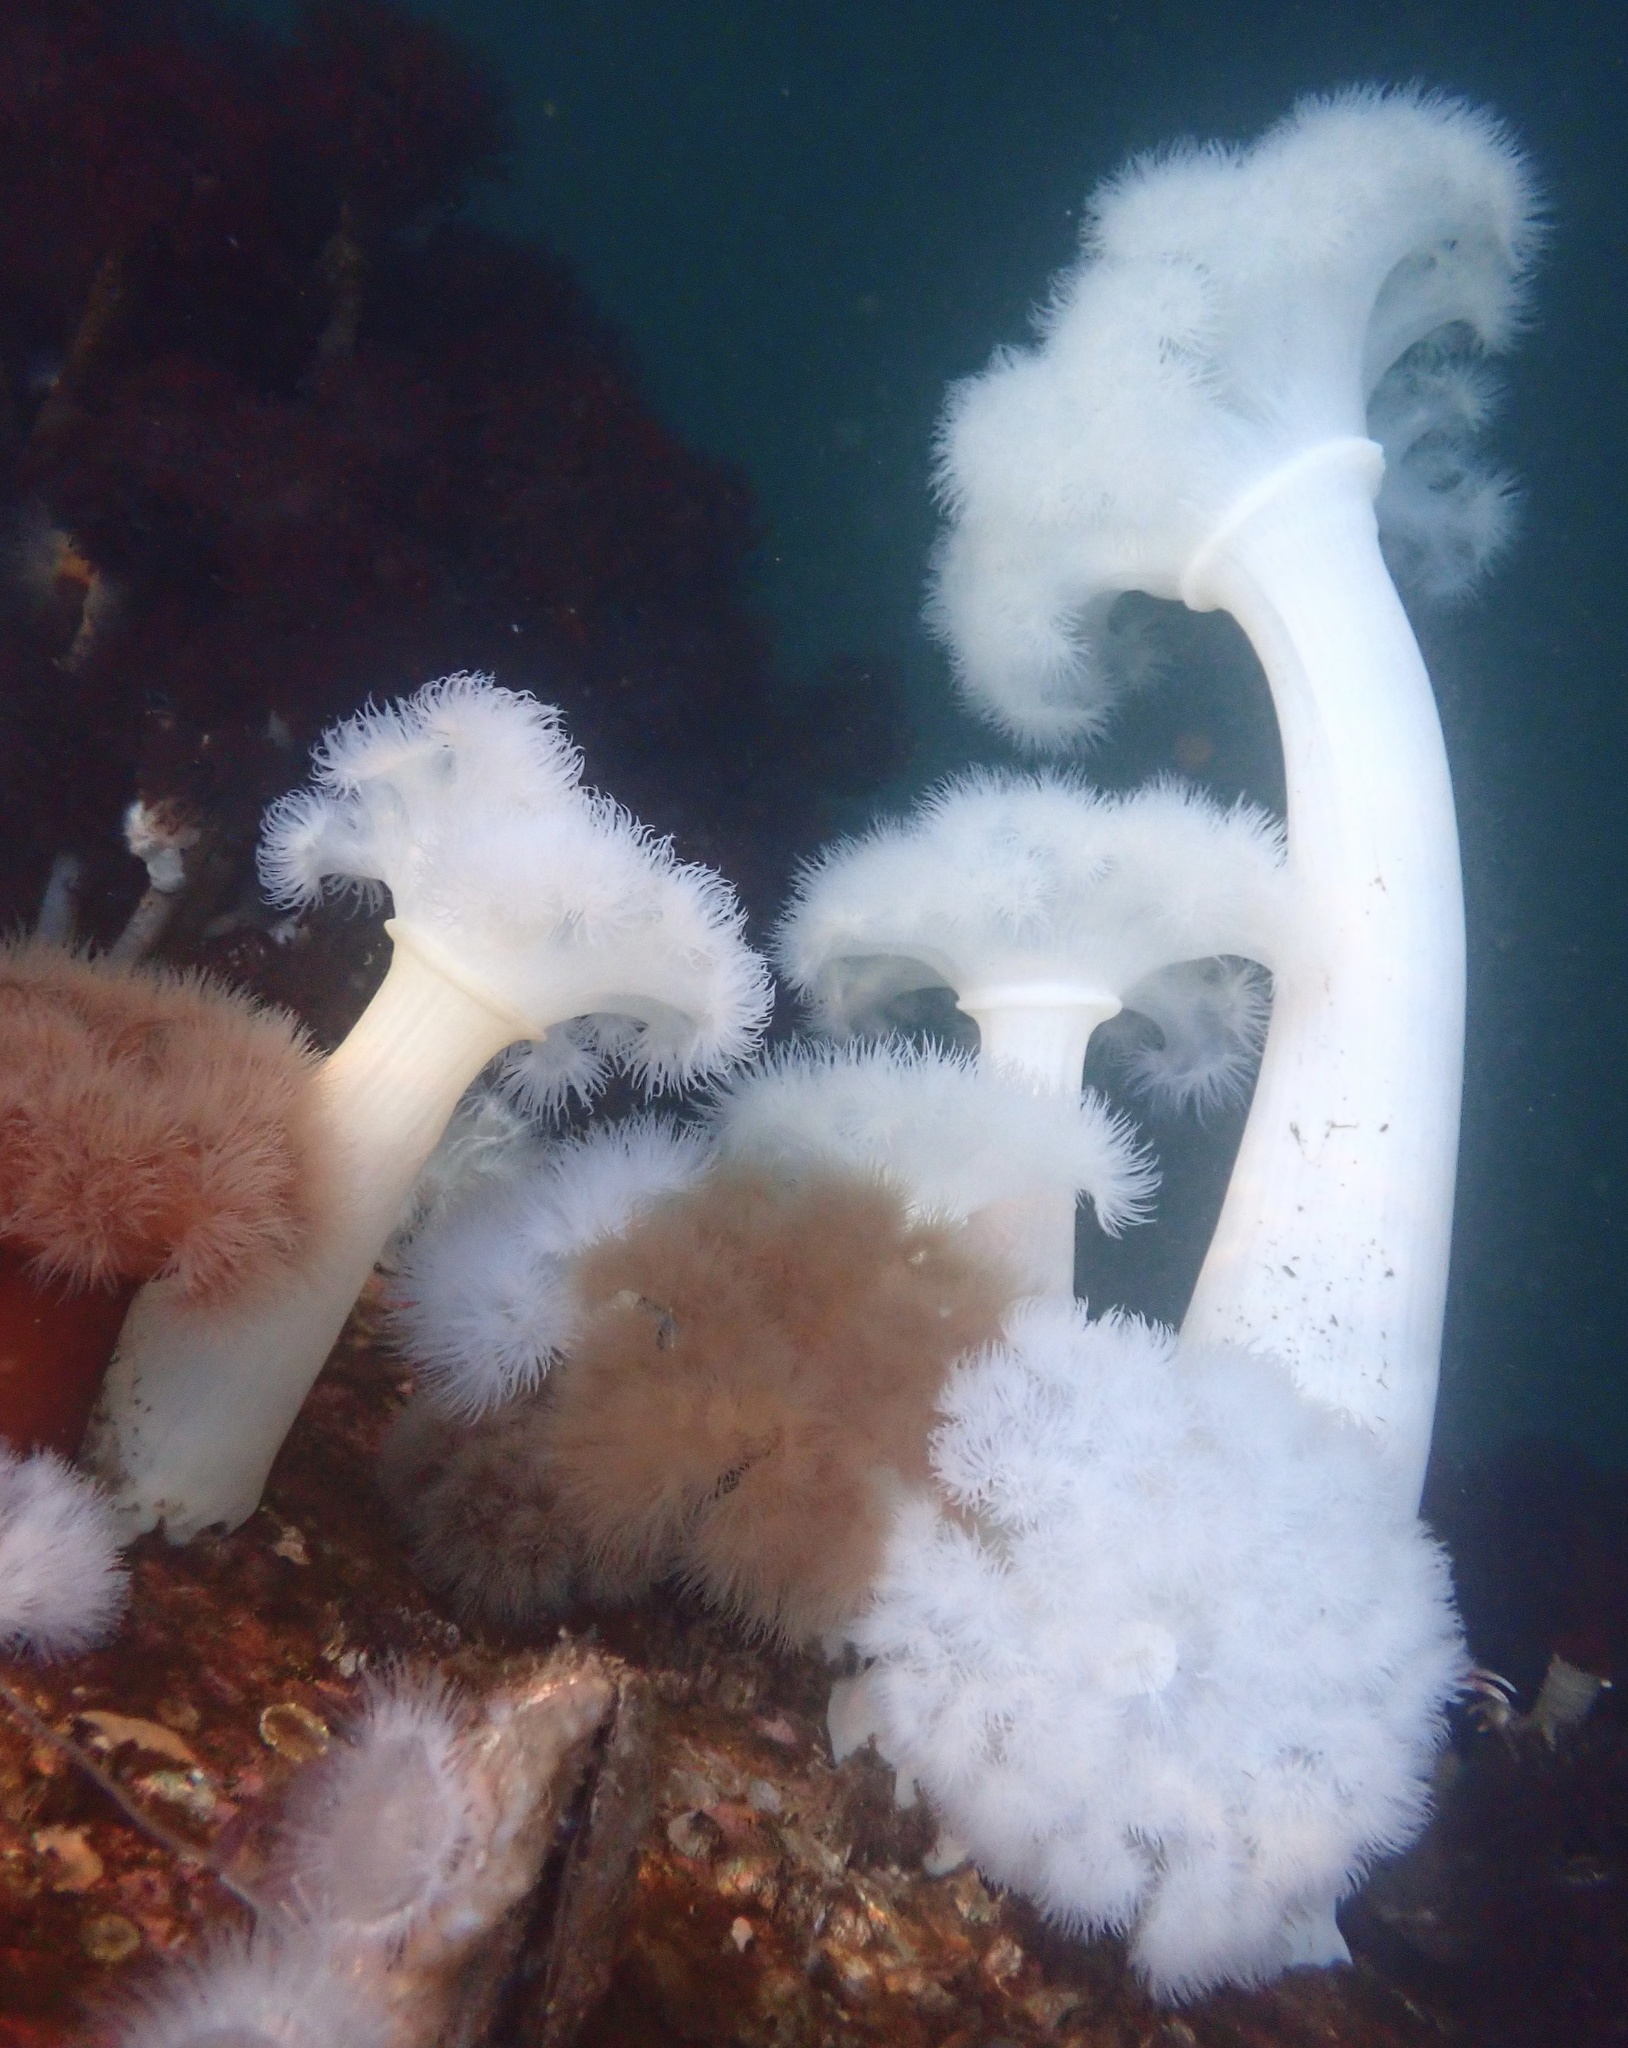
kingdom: Animalia
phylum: Cnidaria
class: Anthozoa
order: Actiniaria
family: Metridiidae
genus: Metridium
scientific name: Metridium farcimen
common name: Gigantic anemone
